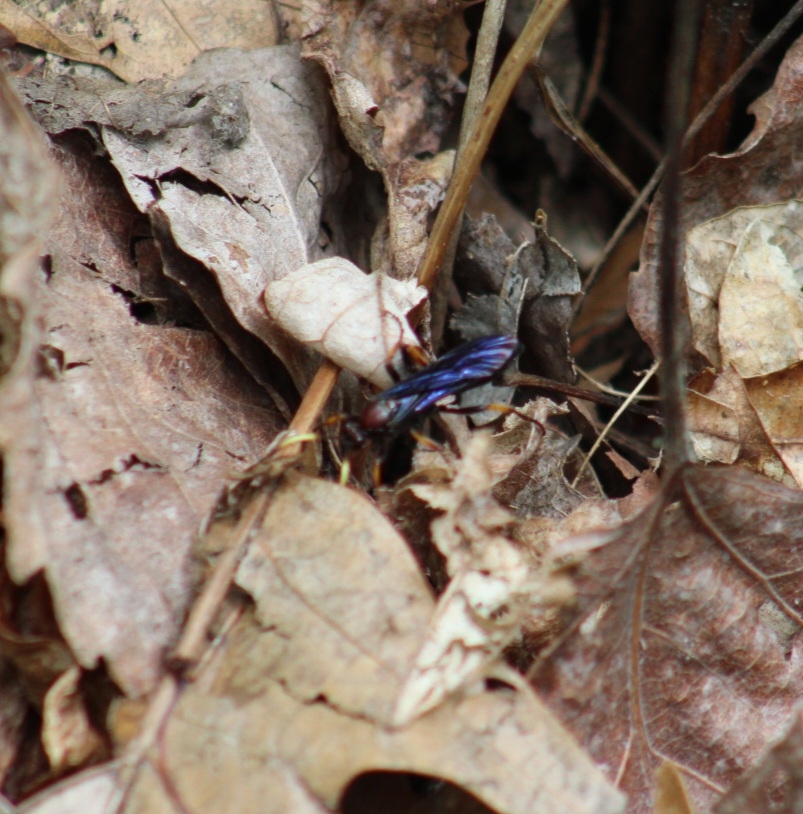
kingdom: Animalia
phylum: Arthropoda
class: Insecta
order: Hymenoptera
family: Ichneumonidae
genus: Ichneumon
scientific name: Ichneumon centrator
